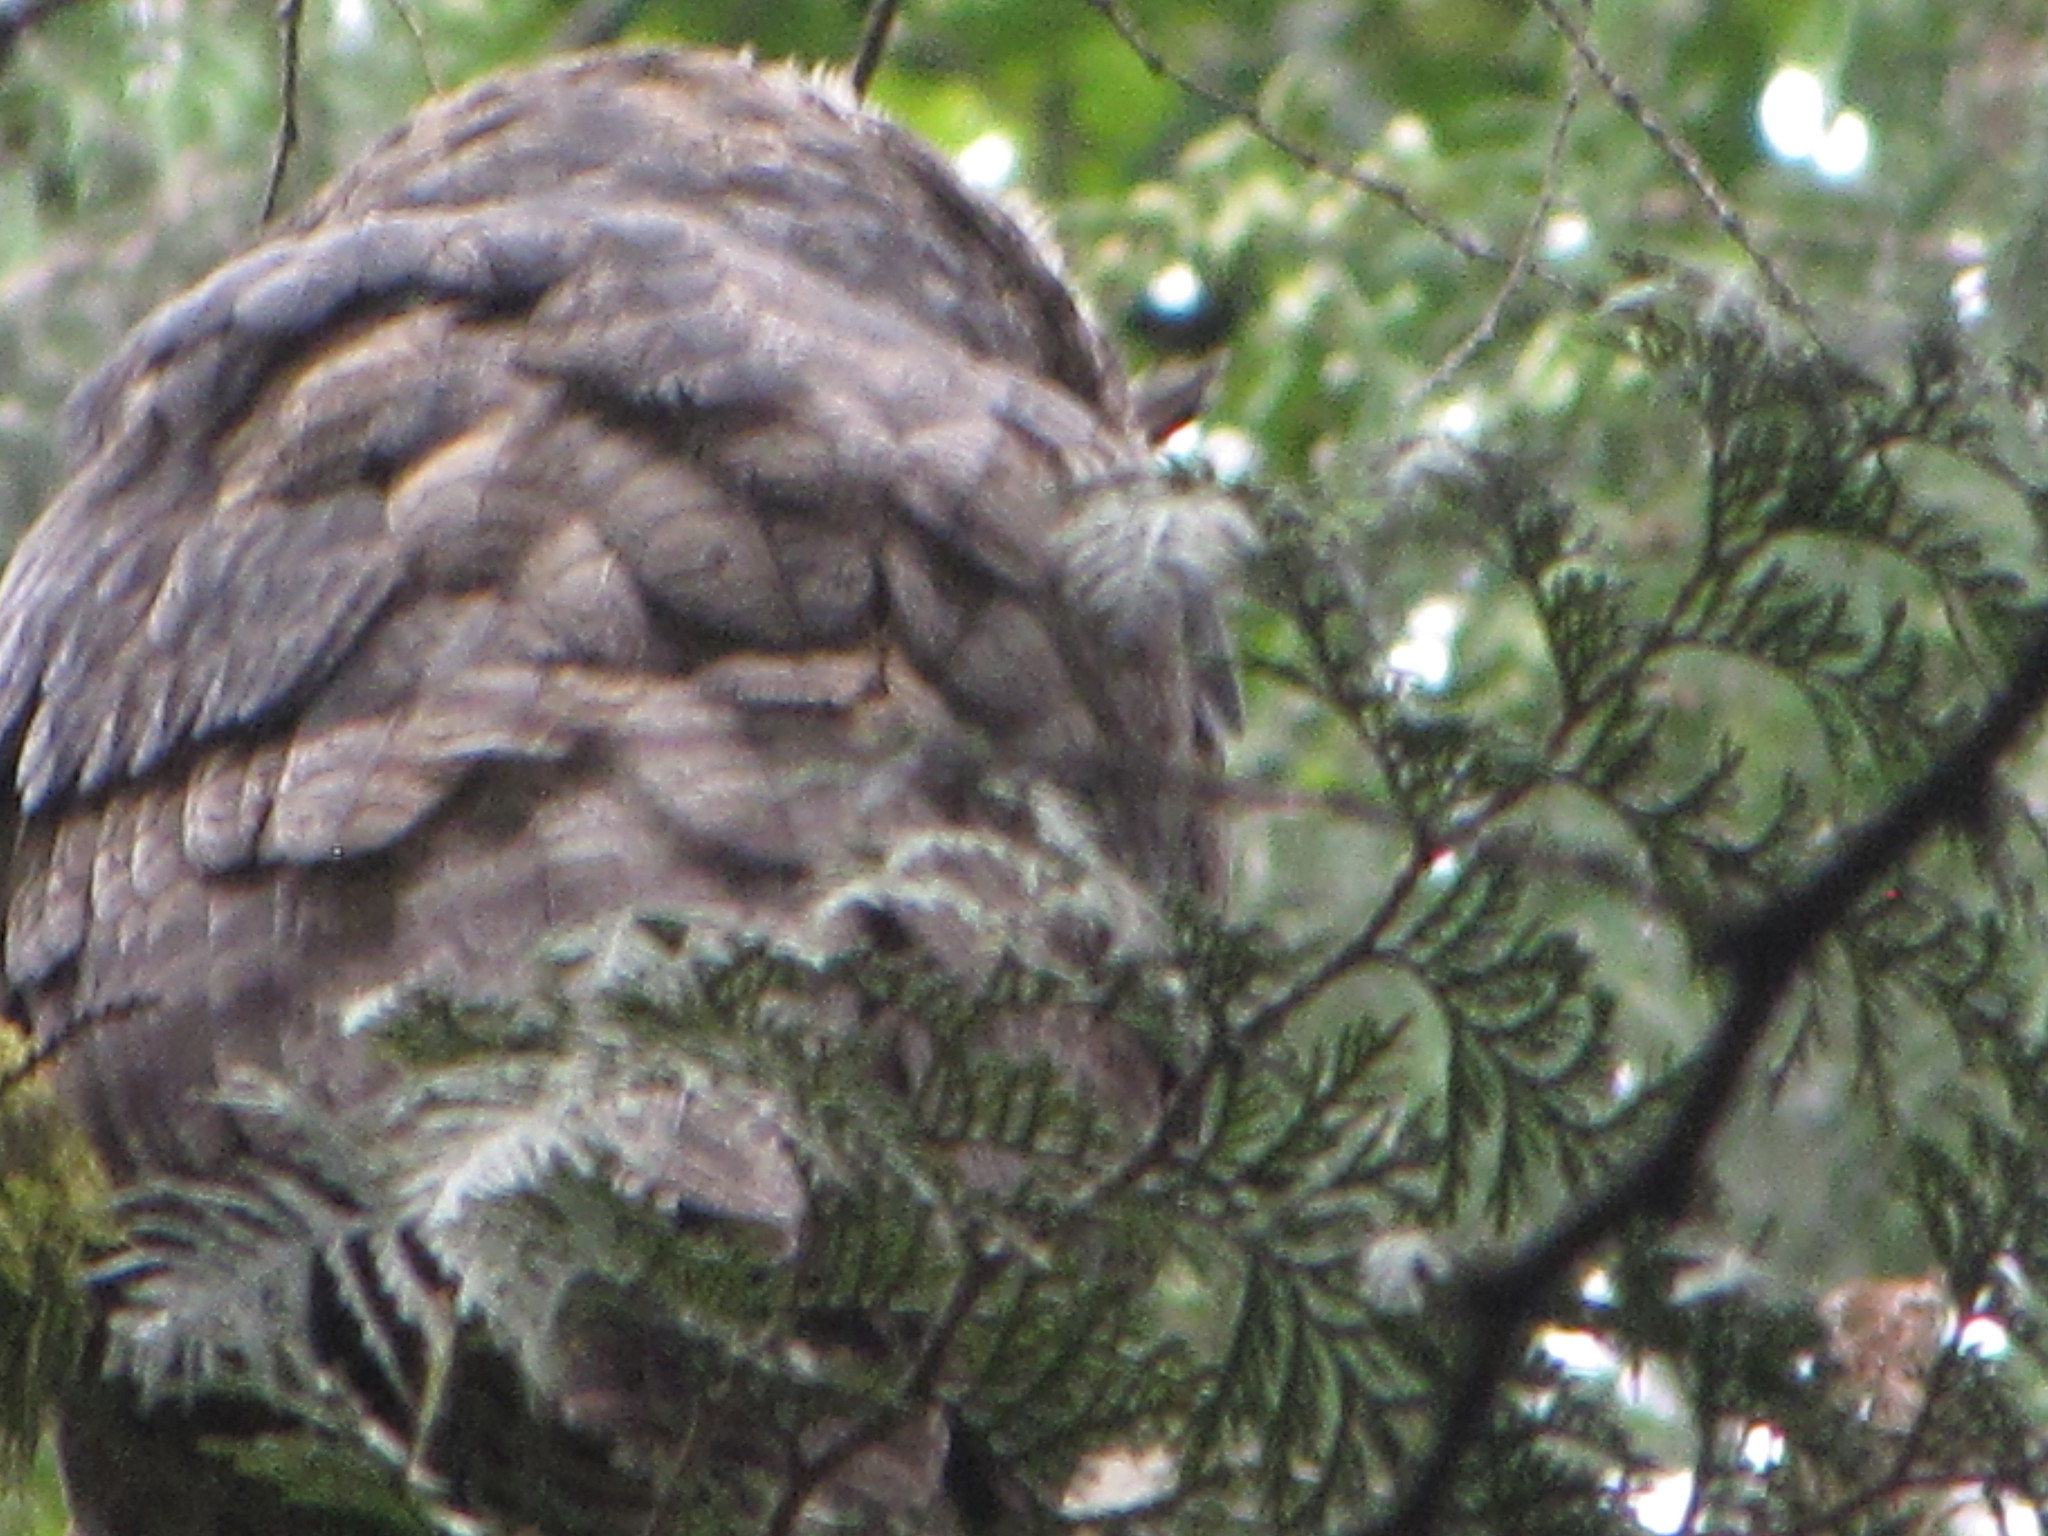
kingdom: Animalia
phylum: Chordata
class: Aves
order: Strigiformes
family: Strigidae
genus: Bubo
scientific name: Bubo virginianus
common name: Great horned owl
